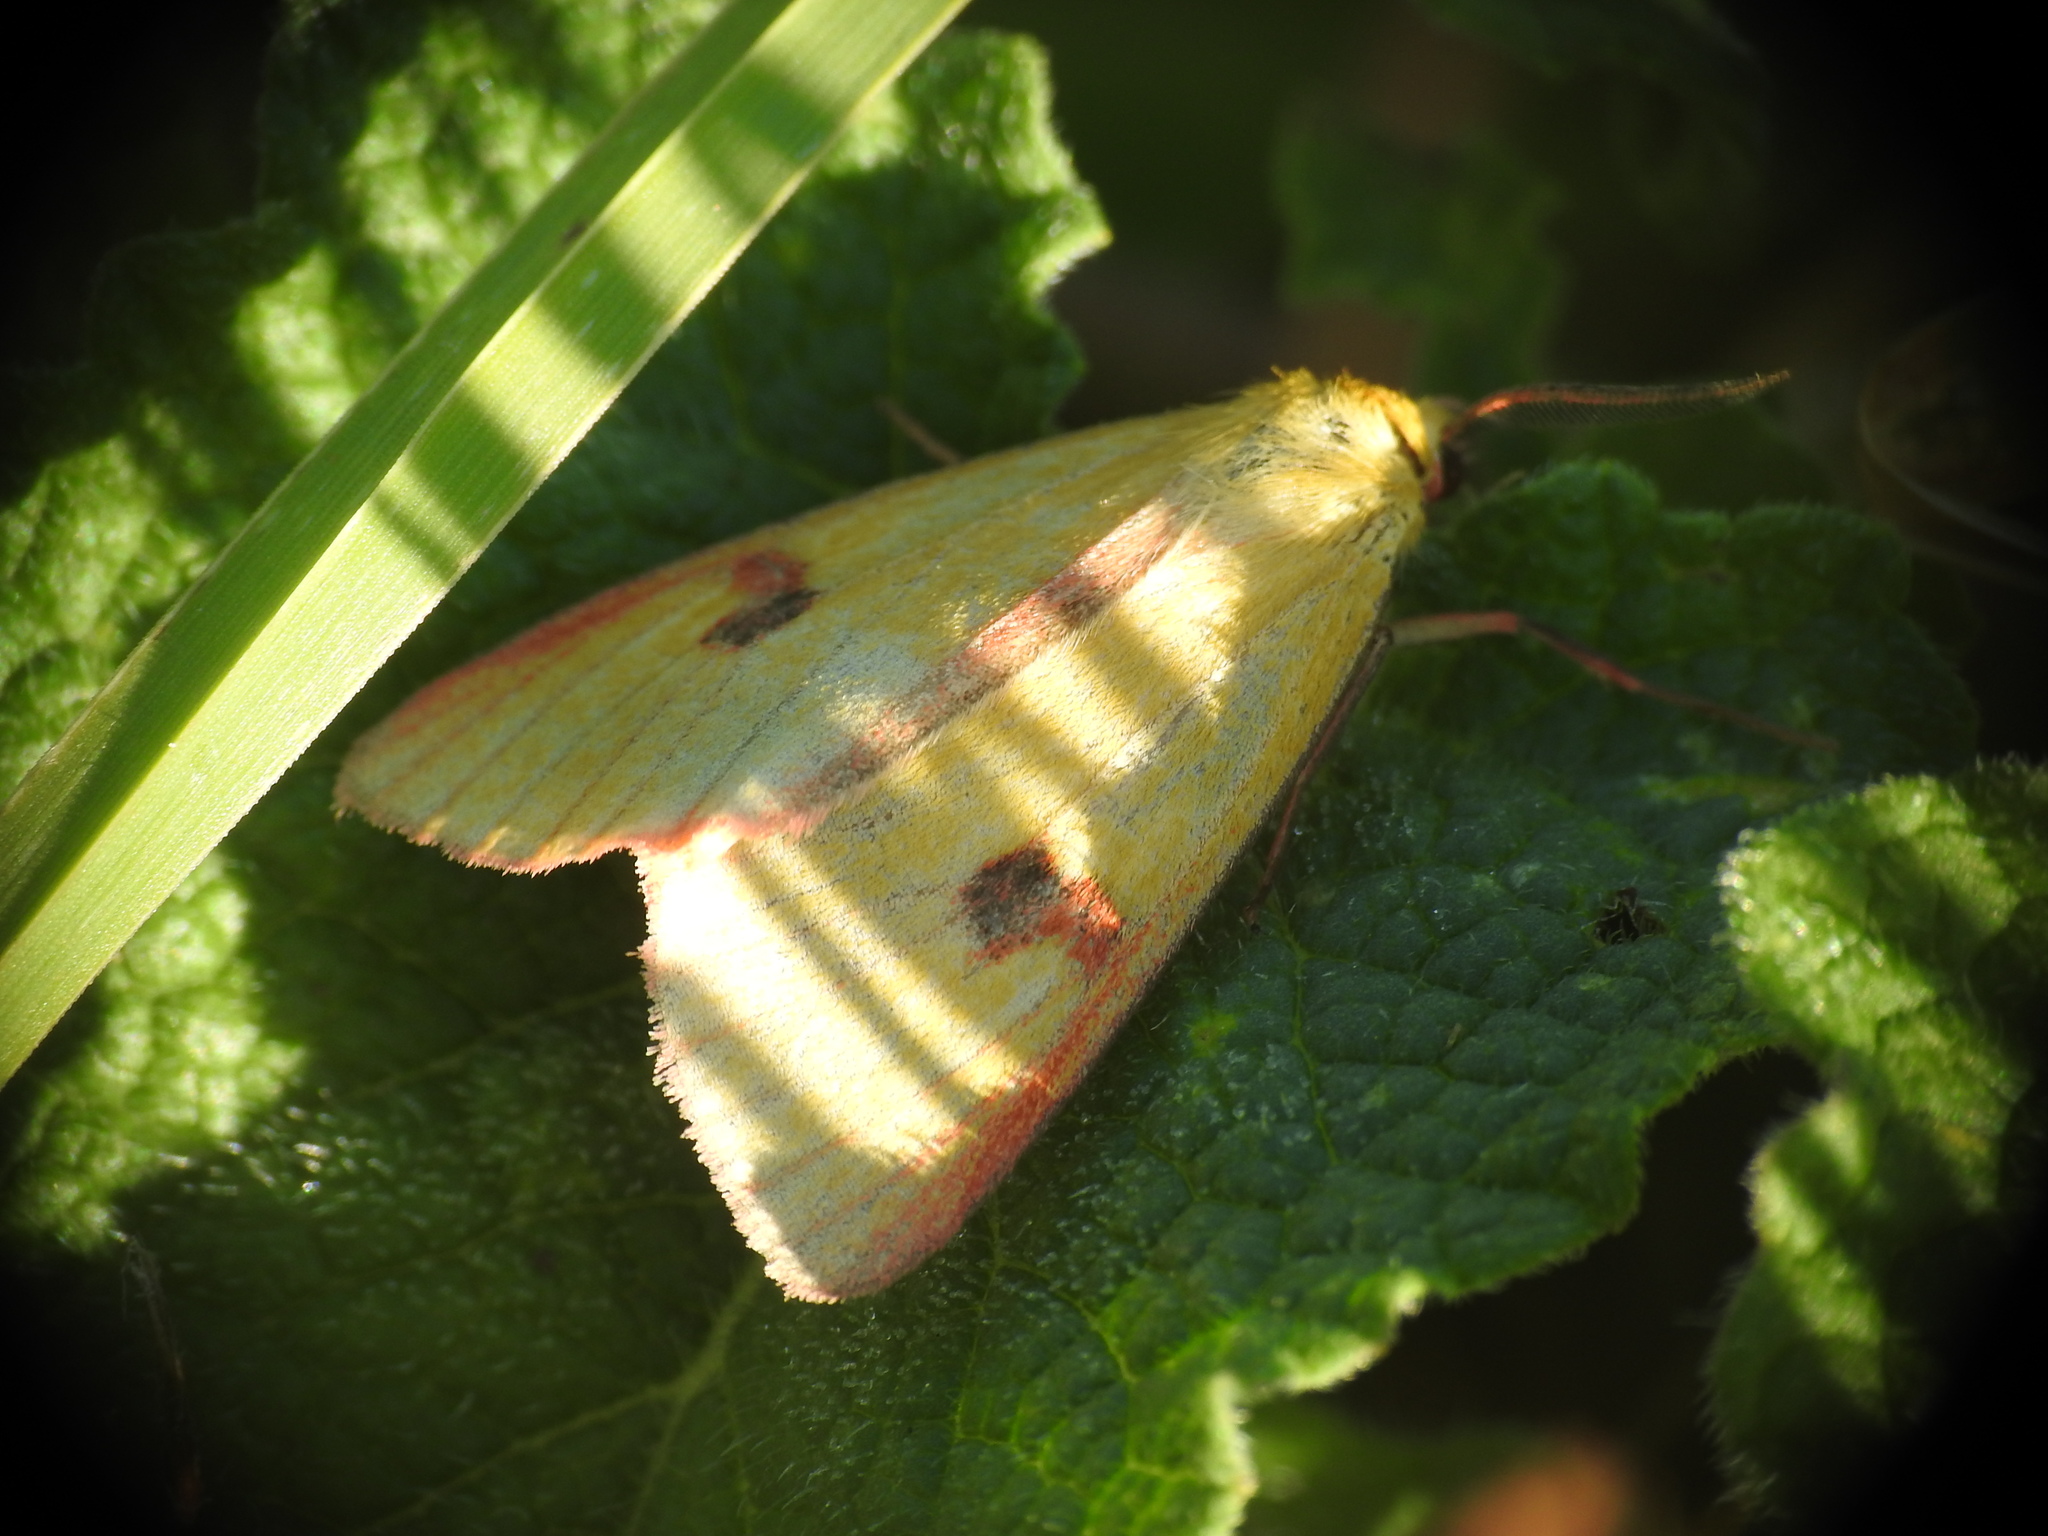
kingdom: Animalia
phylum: Arthropoda
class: Insecta
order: Lepidoptera
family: Erebidae
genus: Diacrisia
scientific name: Diacrisia sannio
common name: Clouded buff
